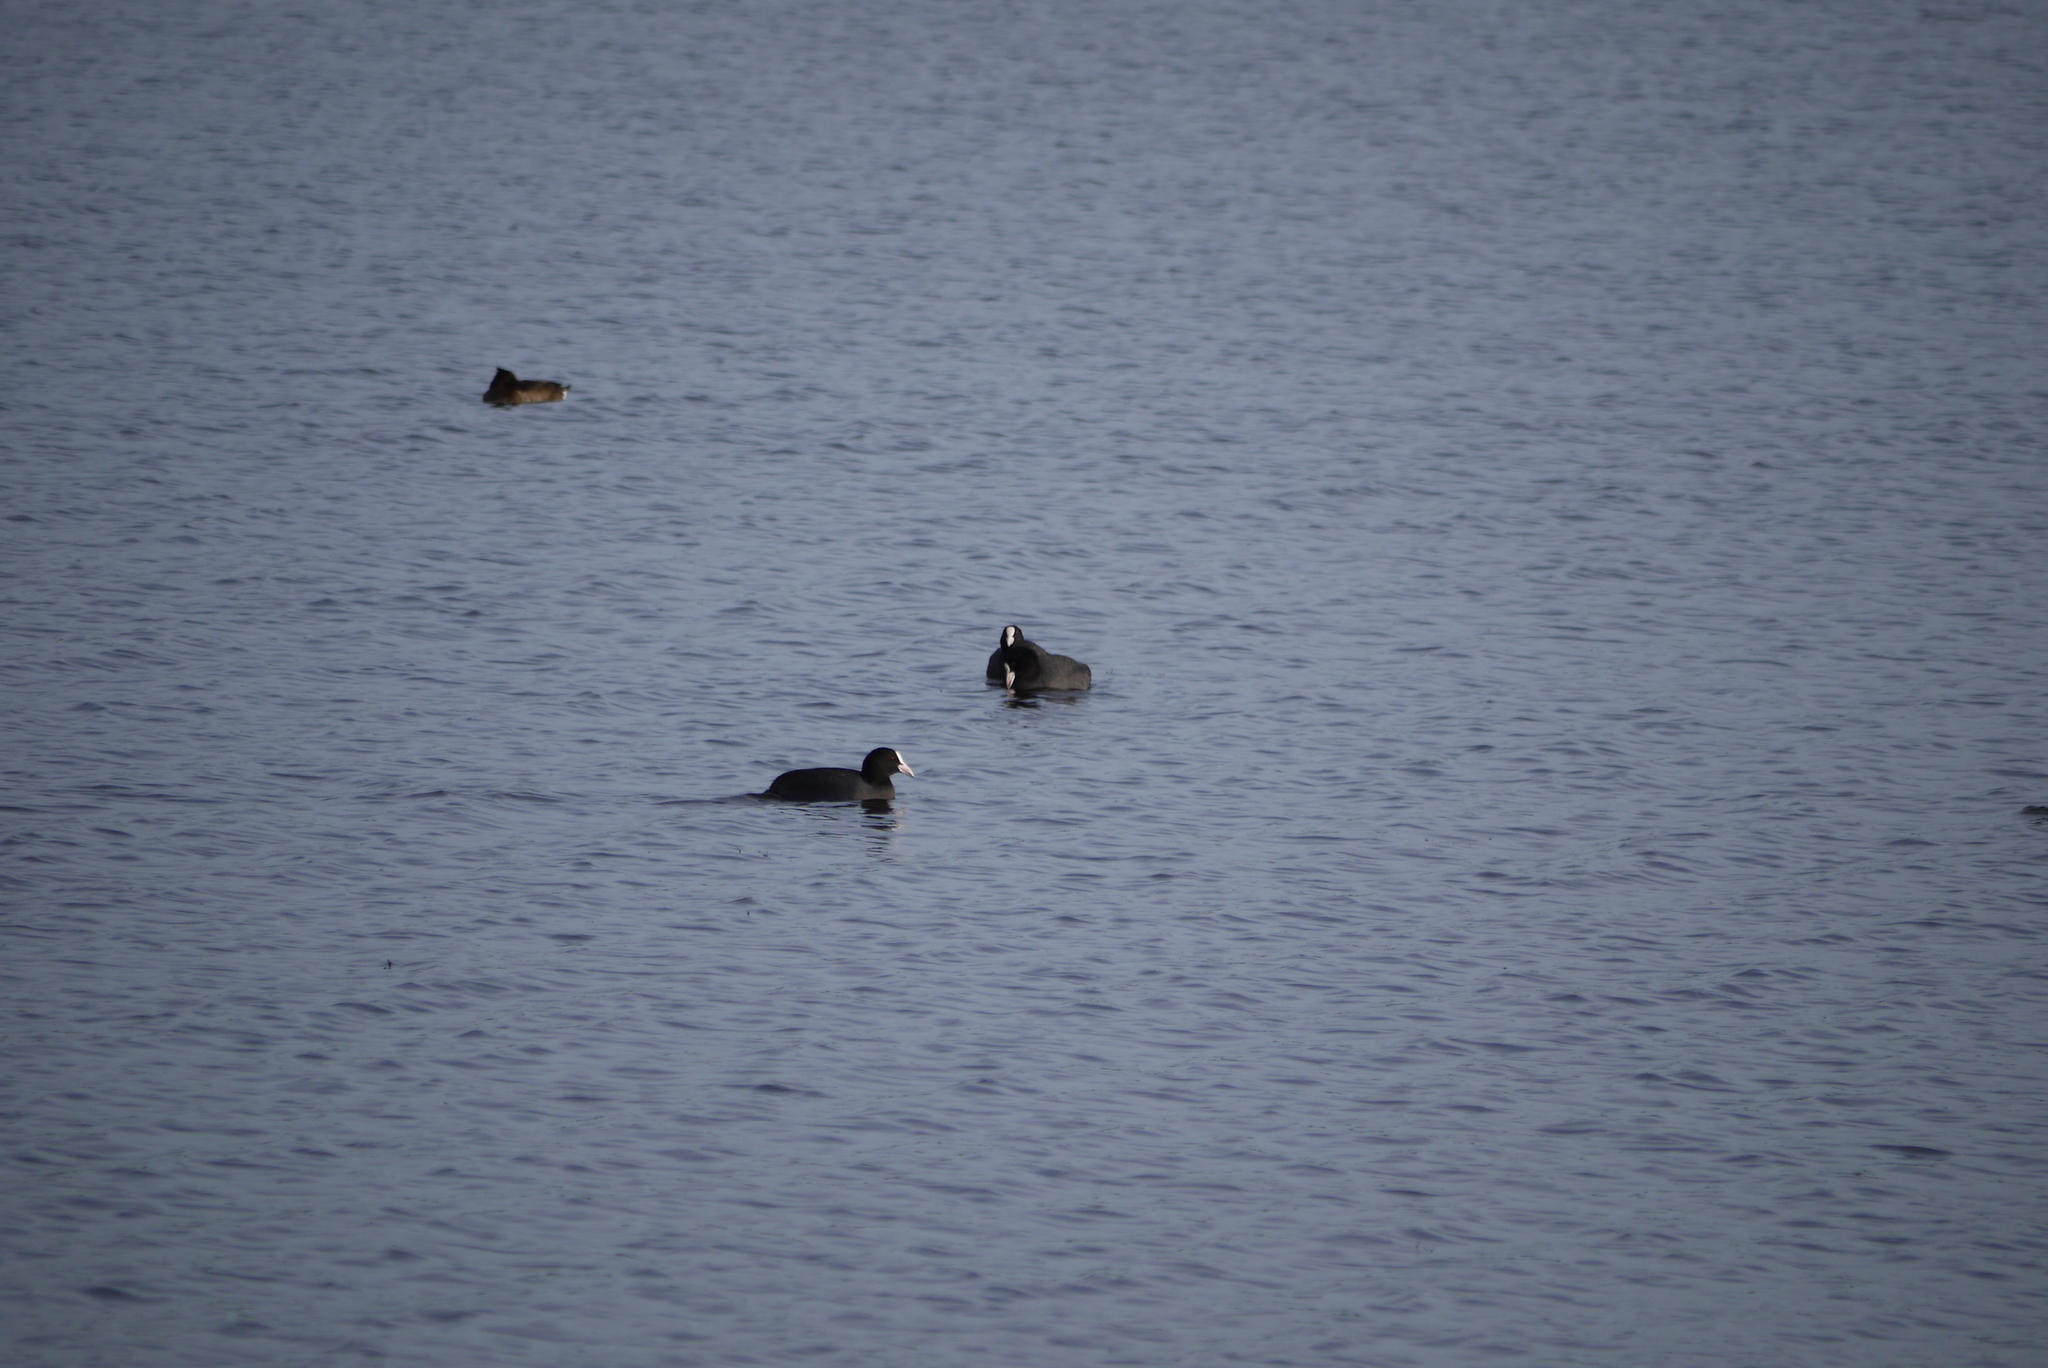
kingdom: Animalia
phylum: Chordata
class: Aves
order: Gruiformes
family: Rallidae
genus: Fulica
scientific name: Fulica atra
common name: Eurasian coot
